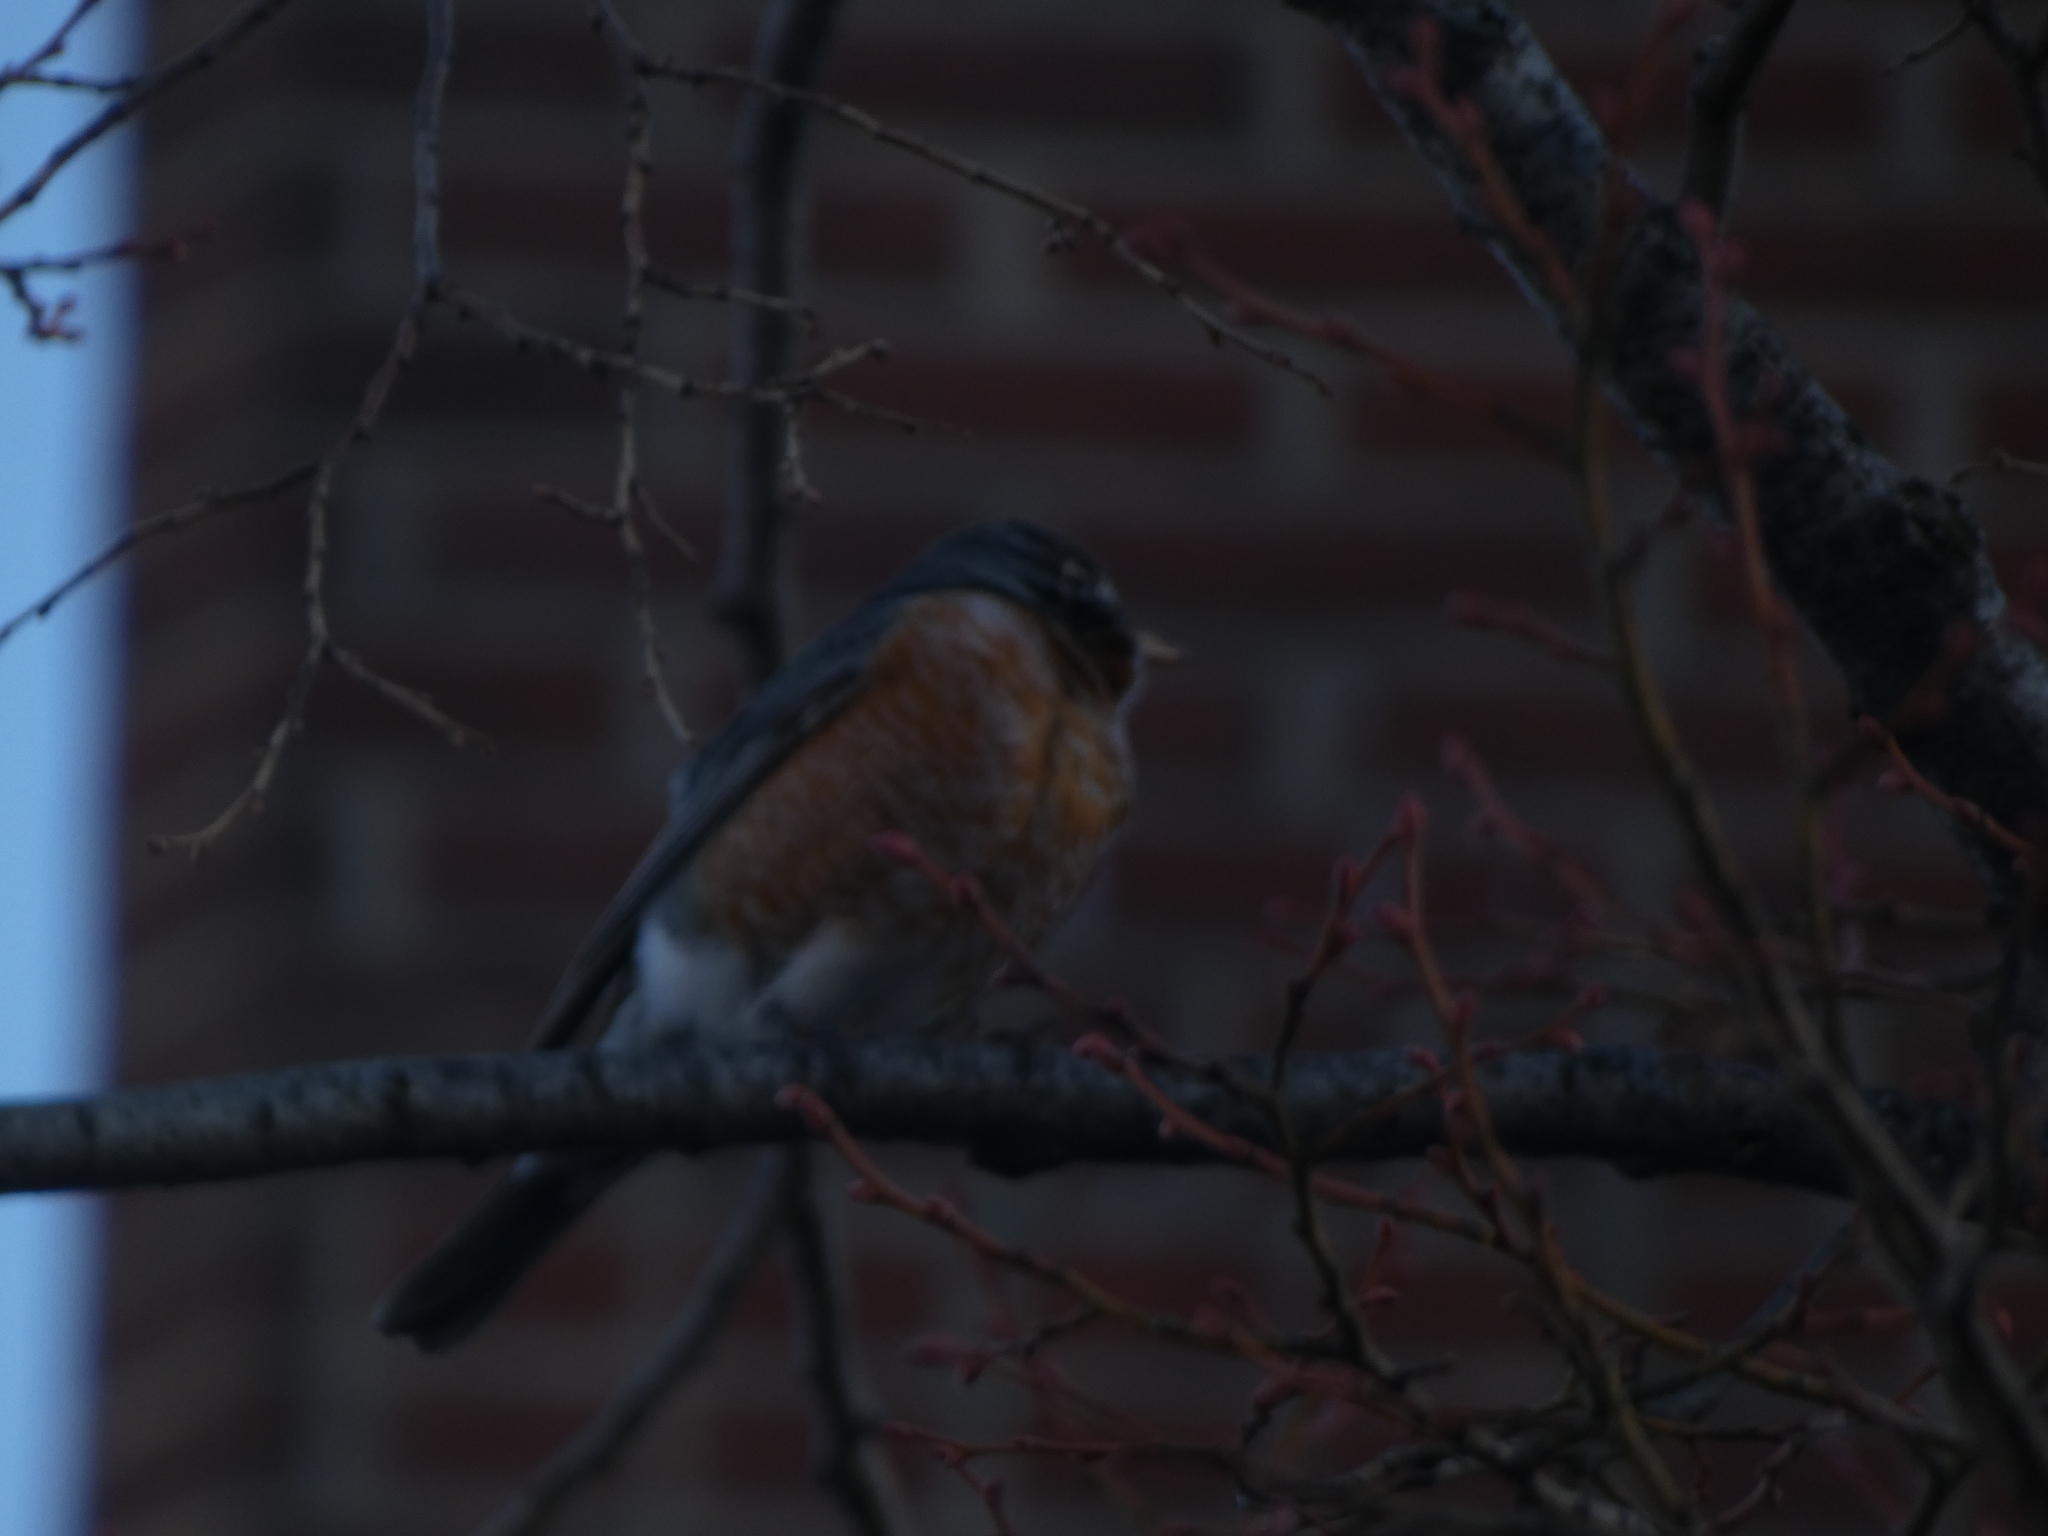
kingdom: Animalia
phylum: Chordata
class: Aves
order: Passeriformes
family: Turdidae
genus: Turdus
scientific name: Turdus migratorius
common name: American robin
